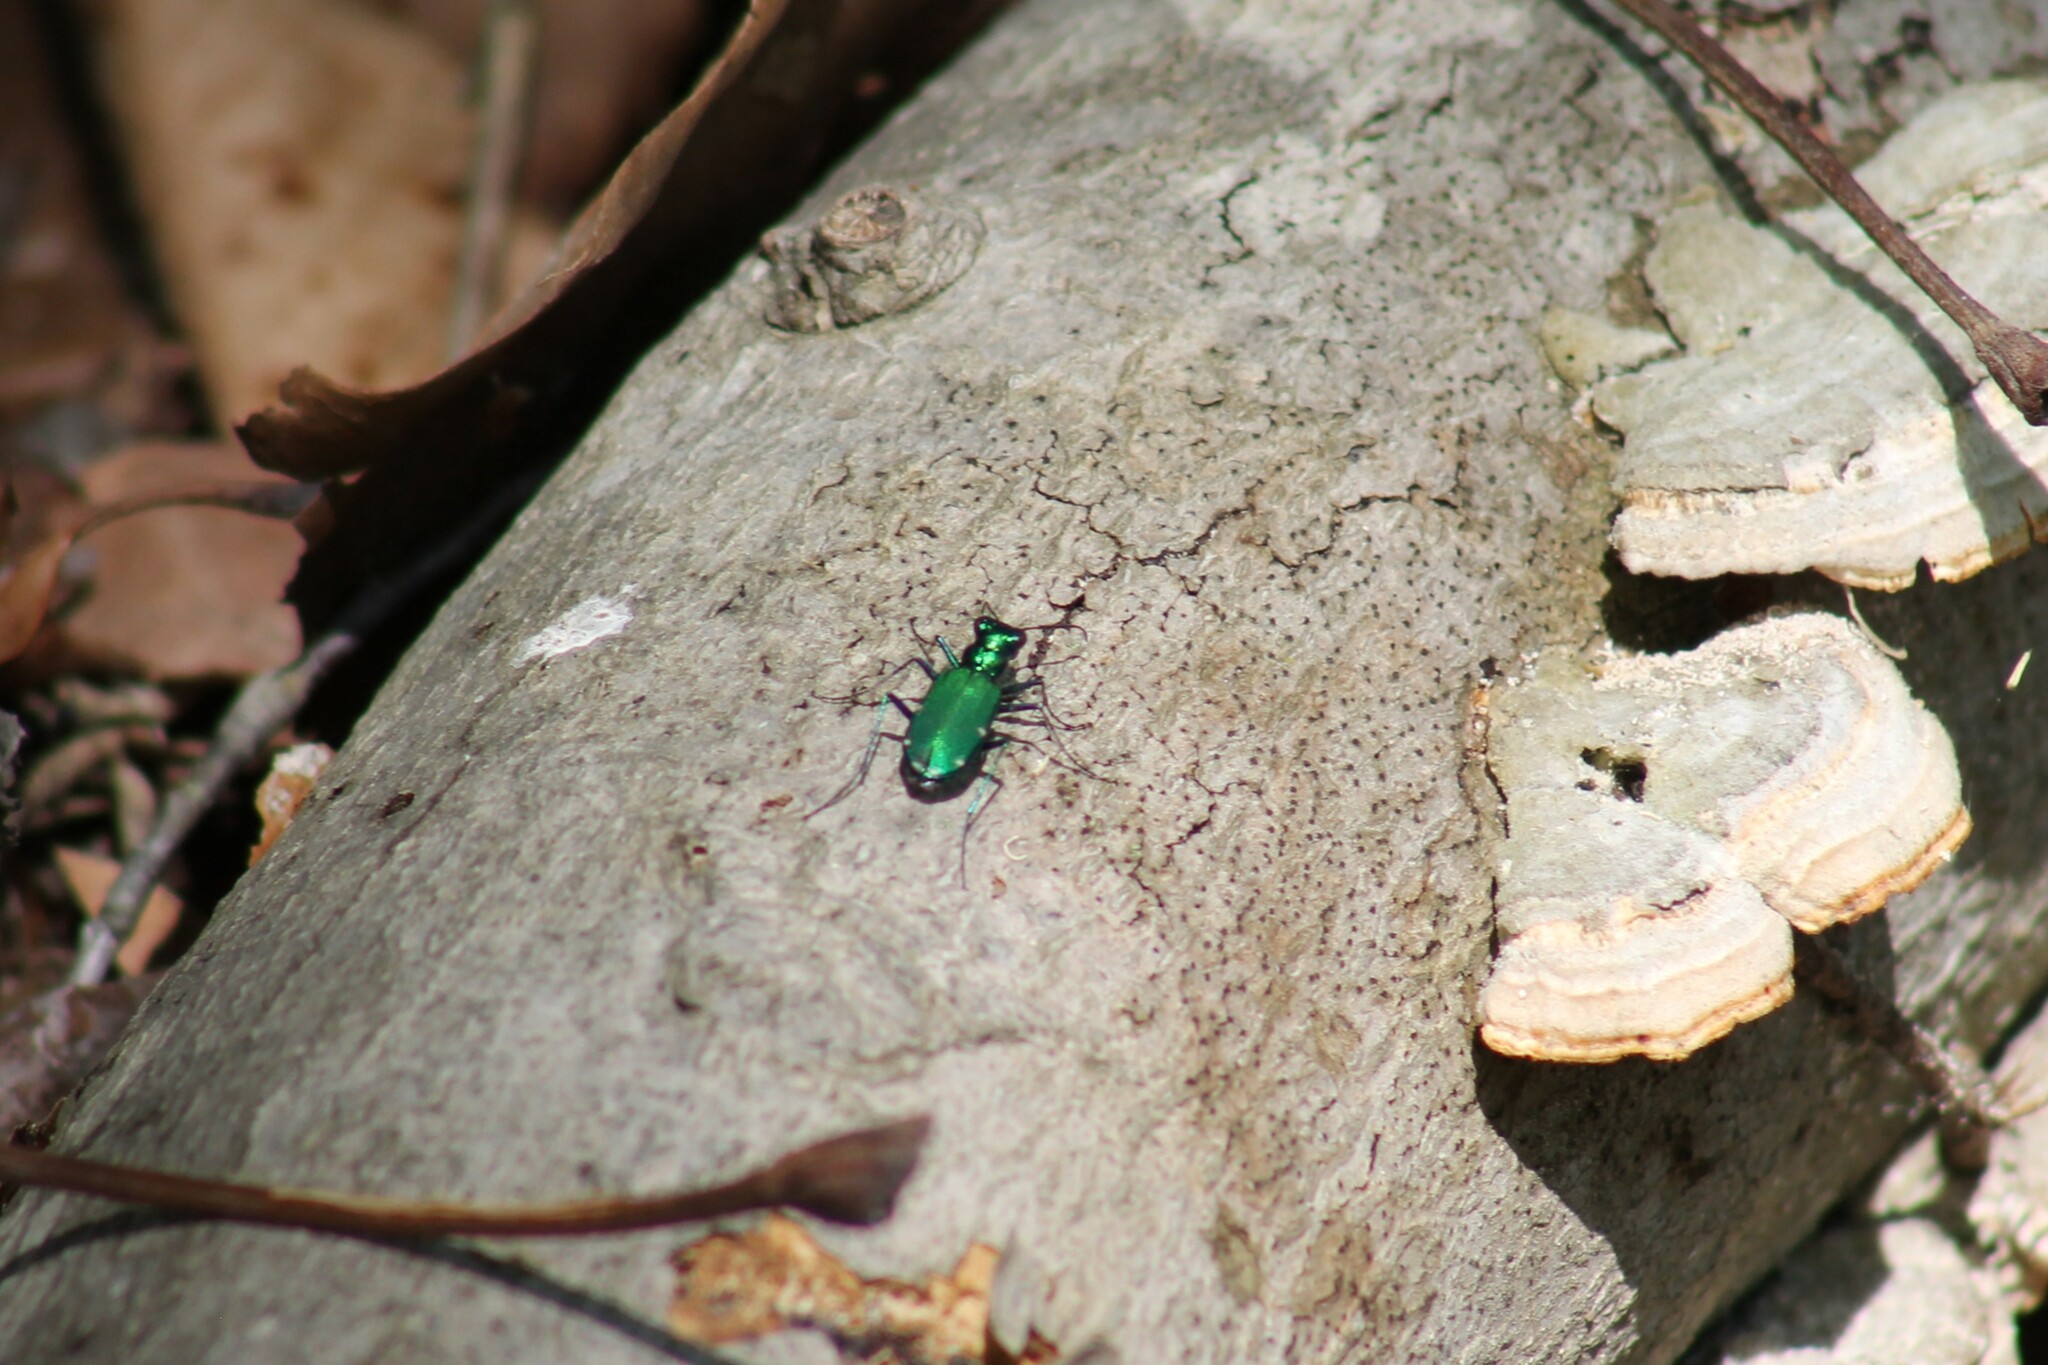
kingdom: Animalia
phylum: Arthropoda
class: Insecta
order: Coleoptera
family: Carabidae
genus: Cicindela
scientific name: Cicindela sexguttata
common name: Six-spotted tiger beetle
